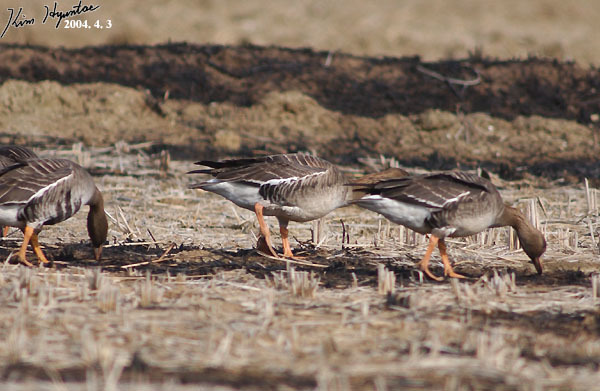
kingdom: Animalia
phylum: Chordata
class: Aves
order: Anseriformes
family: Anatidae
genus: Anser
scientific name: Anser albifrons
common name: Greater white-fronted goose
